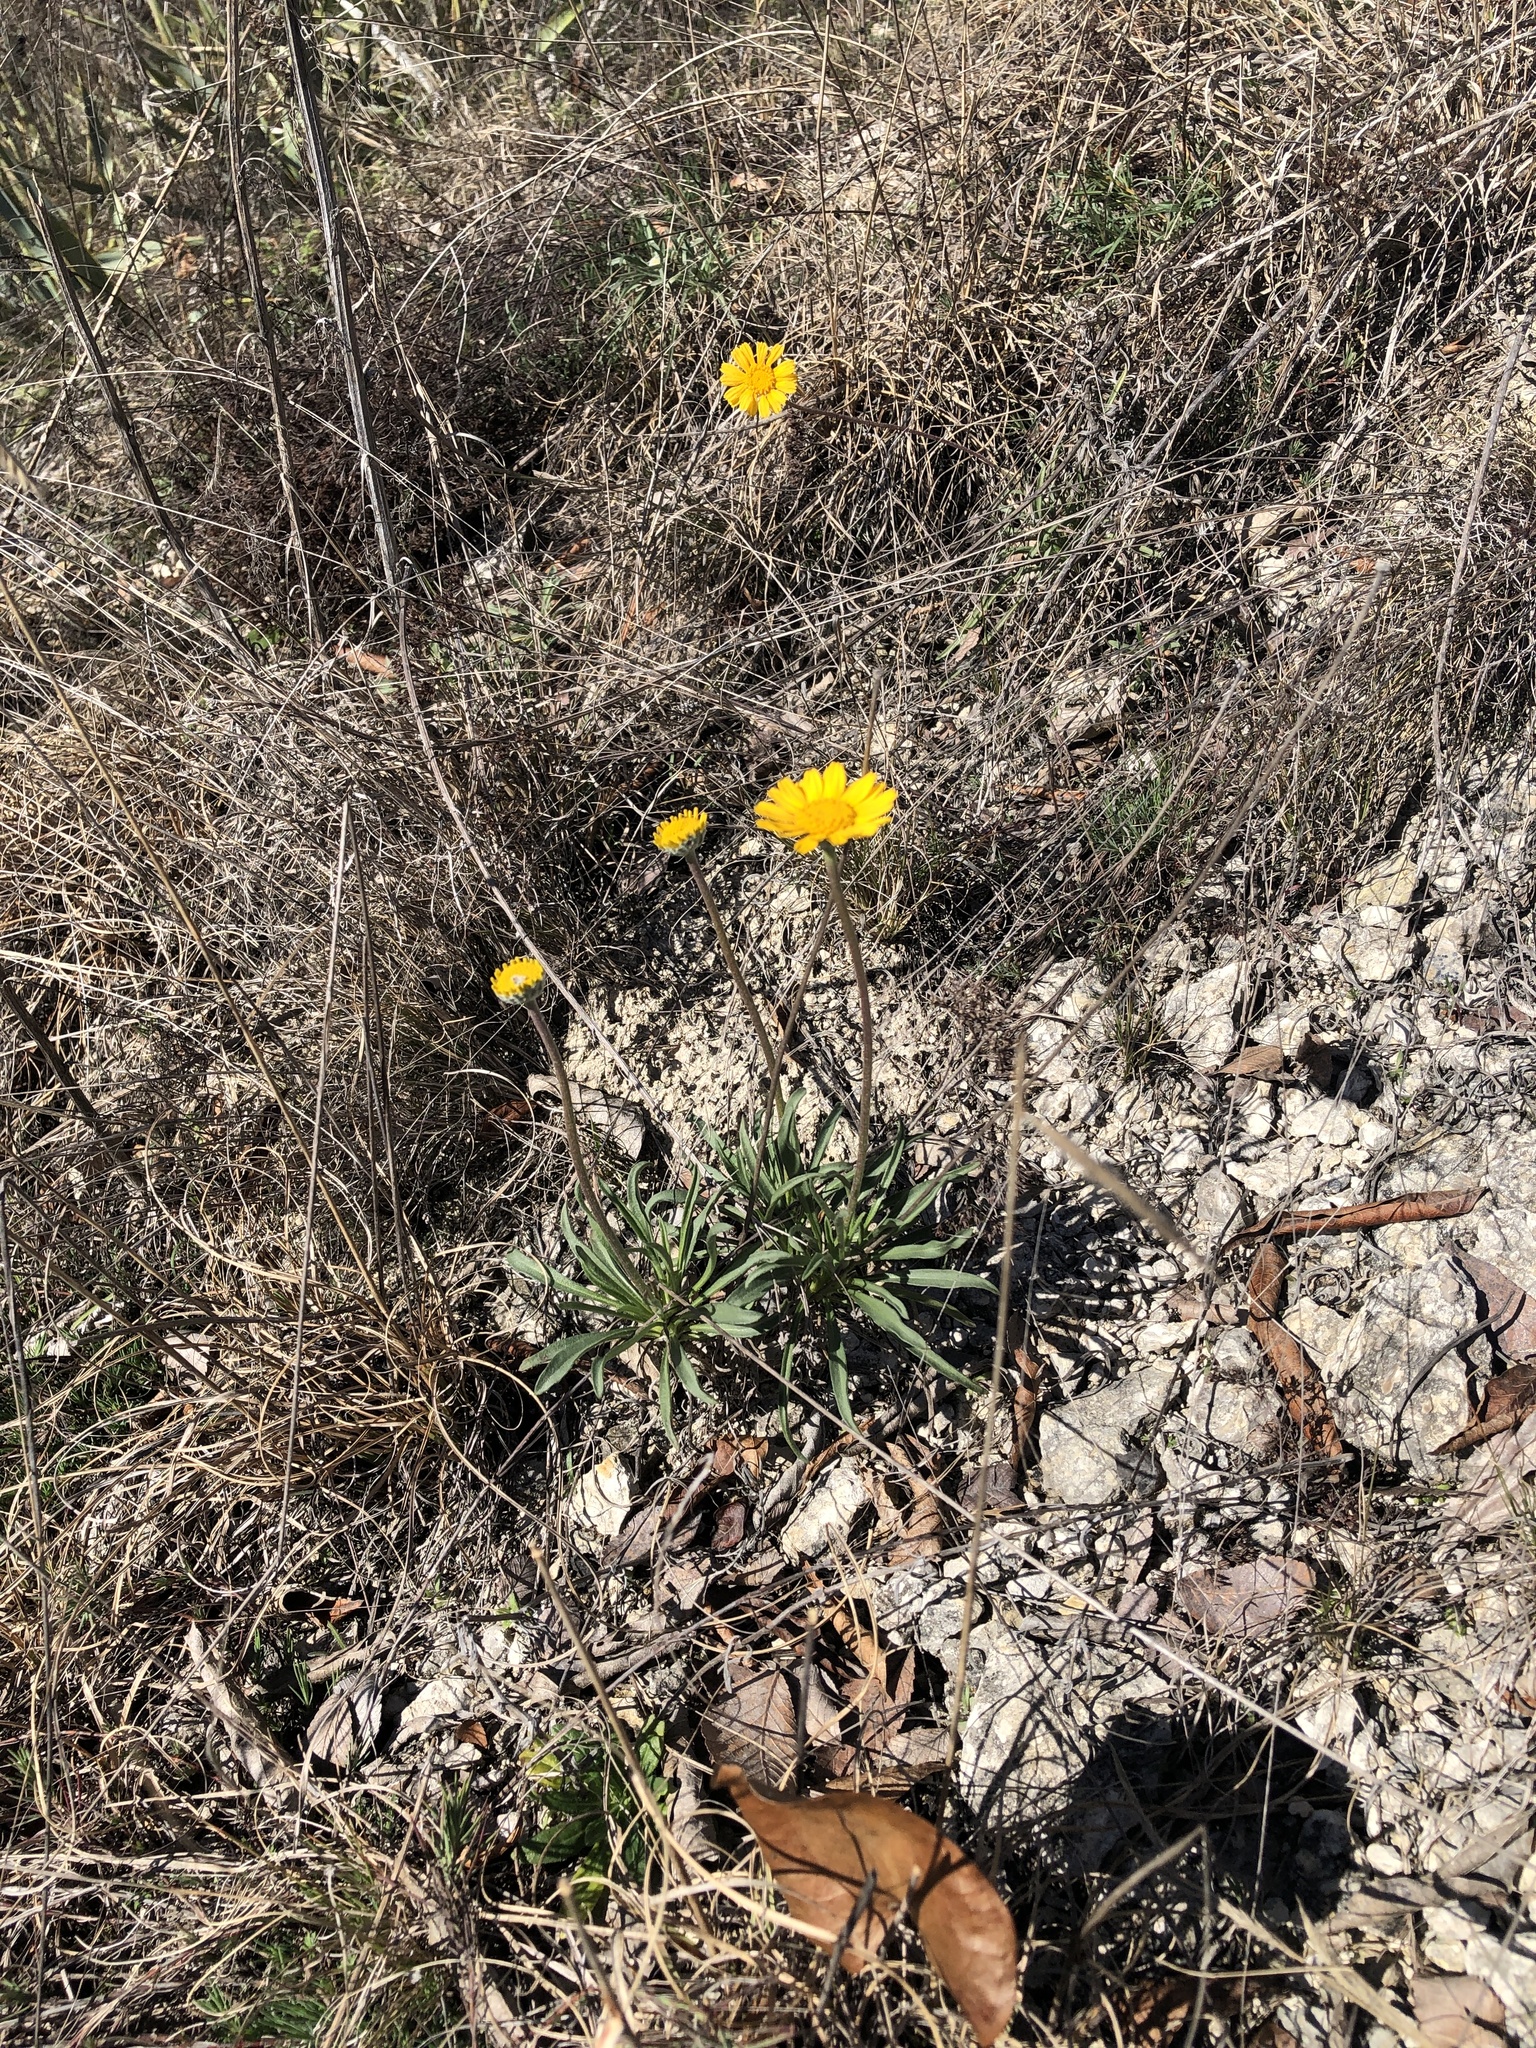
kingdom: Plantae
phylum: Tracheophyta
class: Magnoliopsida
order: Asterales
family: Asteraceae
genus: Tetraneuris
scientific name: Tetraneuris scaposa
